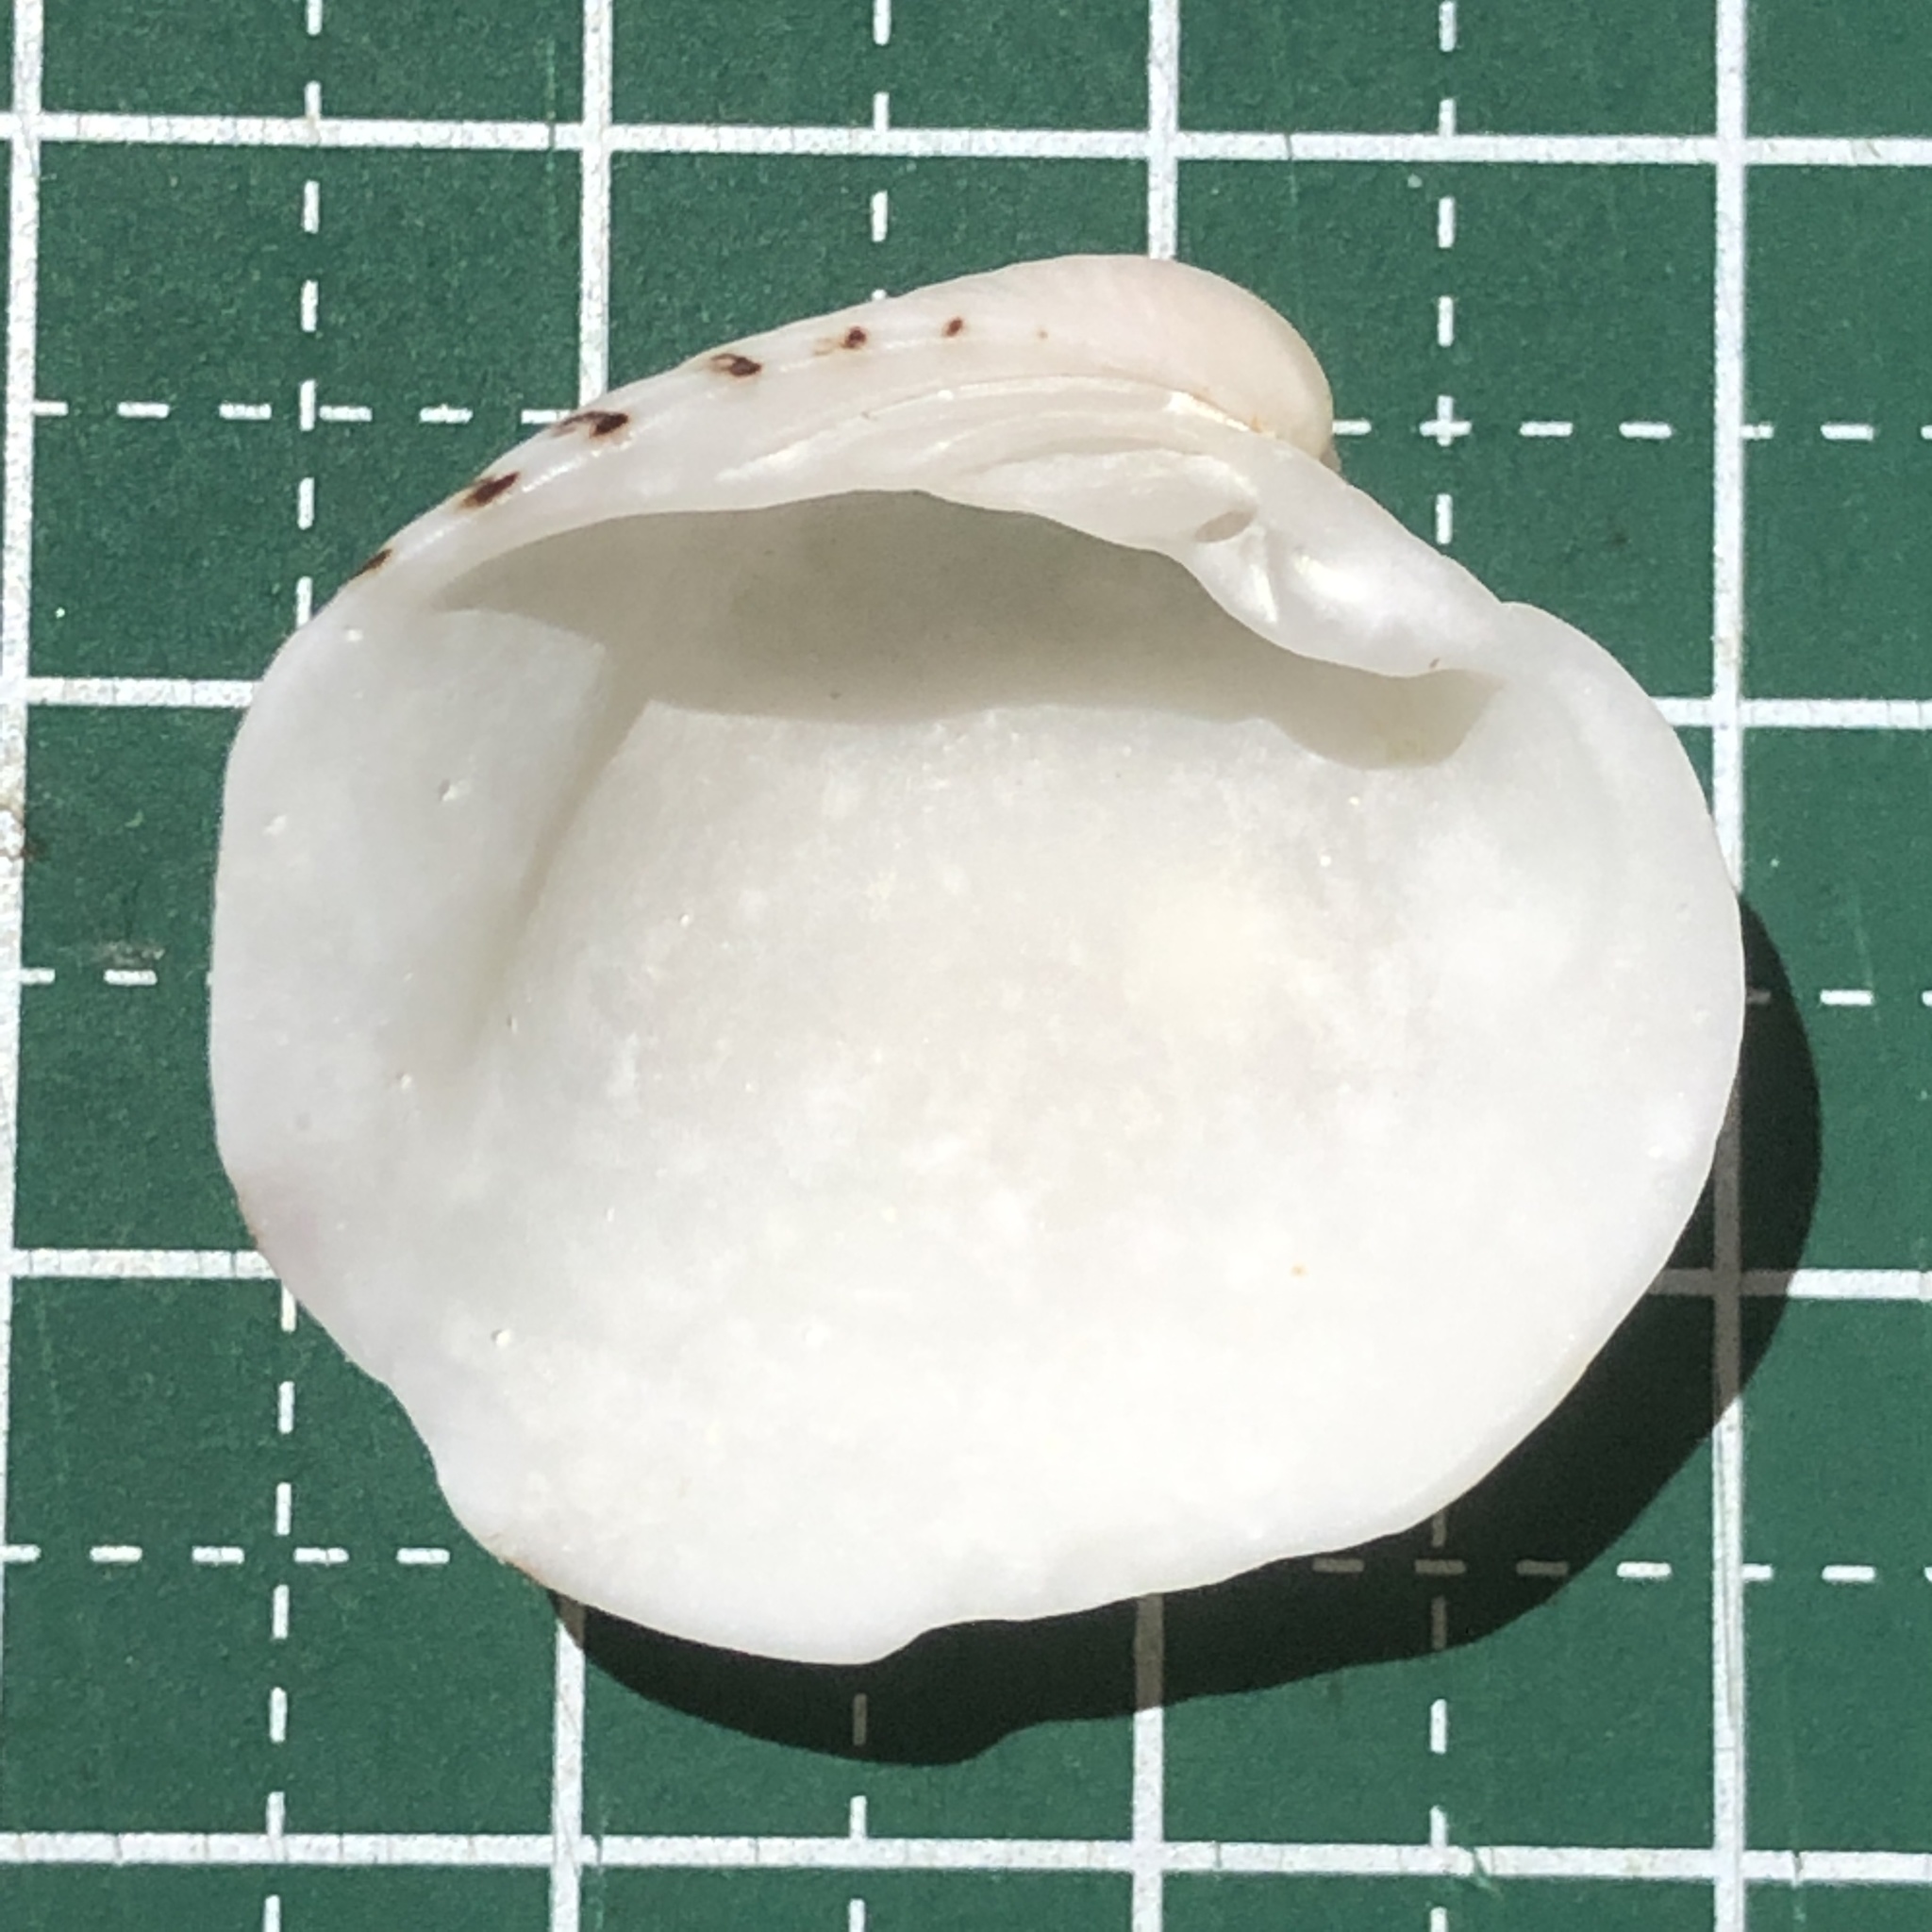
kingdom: Animalia
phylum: Mollusca
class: Bivalvia
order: Venerida
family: Veneridae
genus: Globivenus
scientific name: Globivenus toreuma
